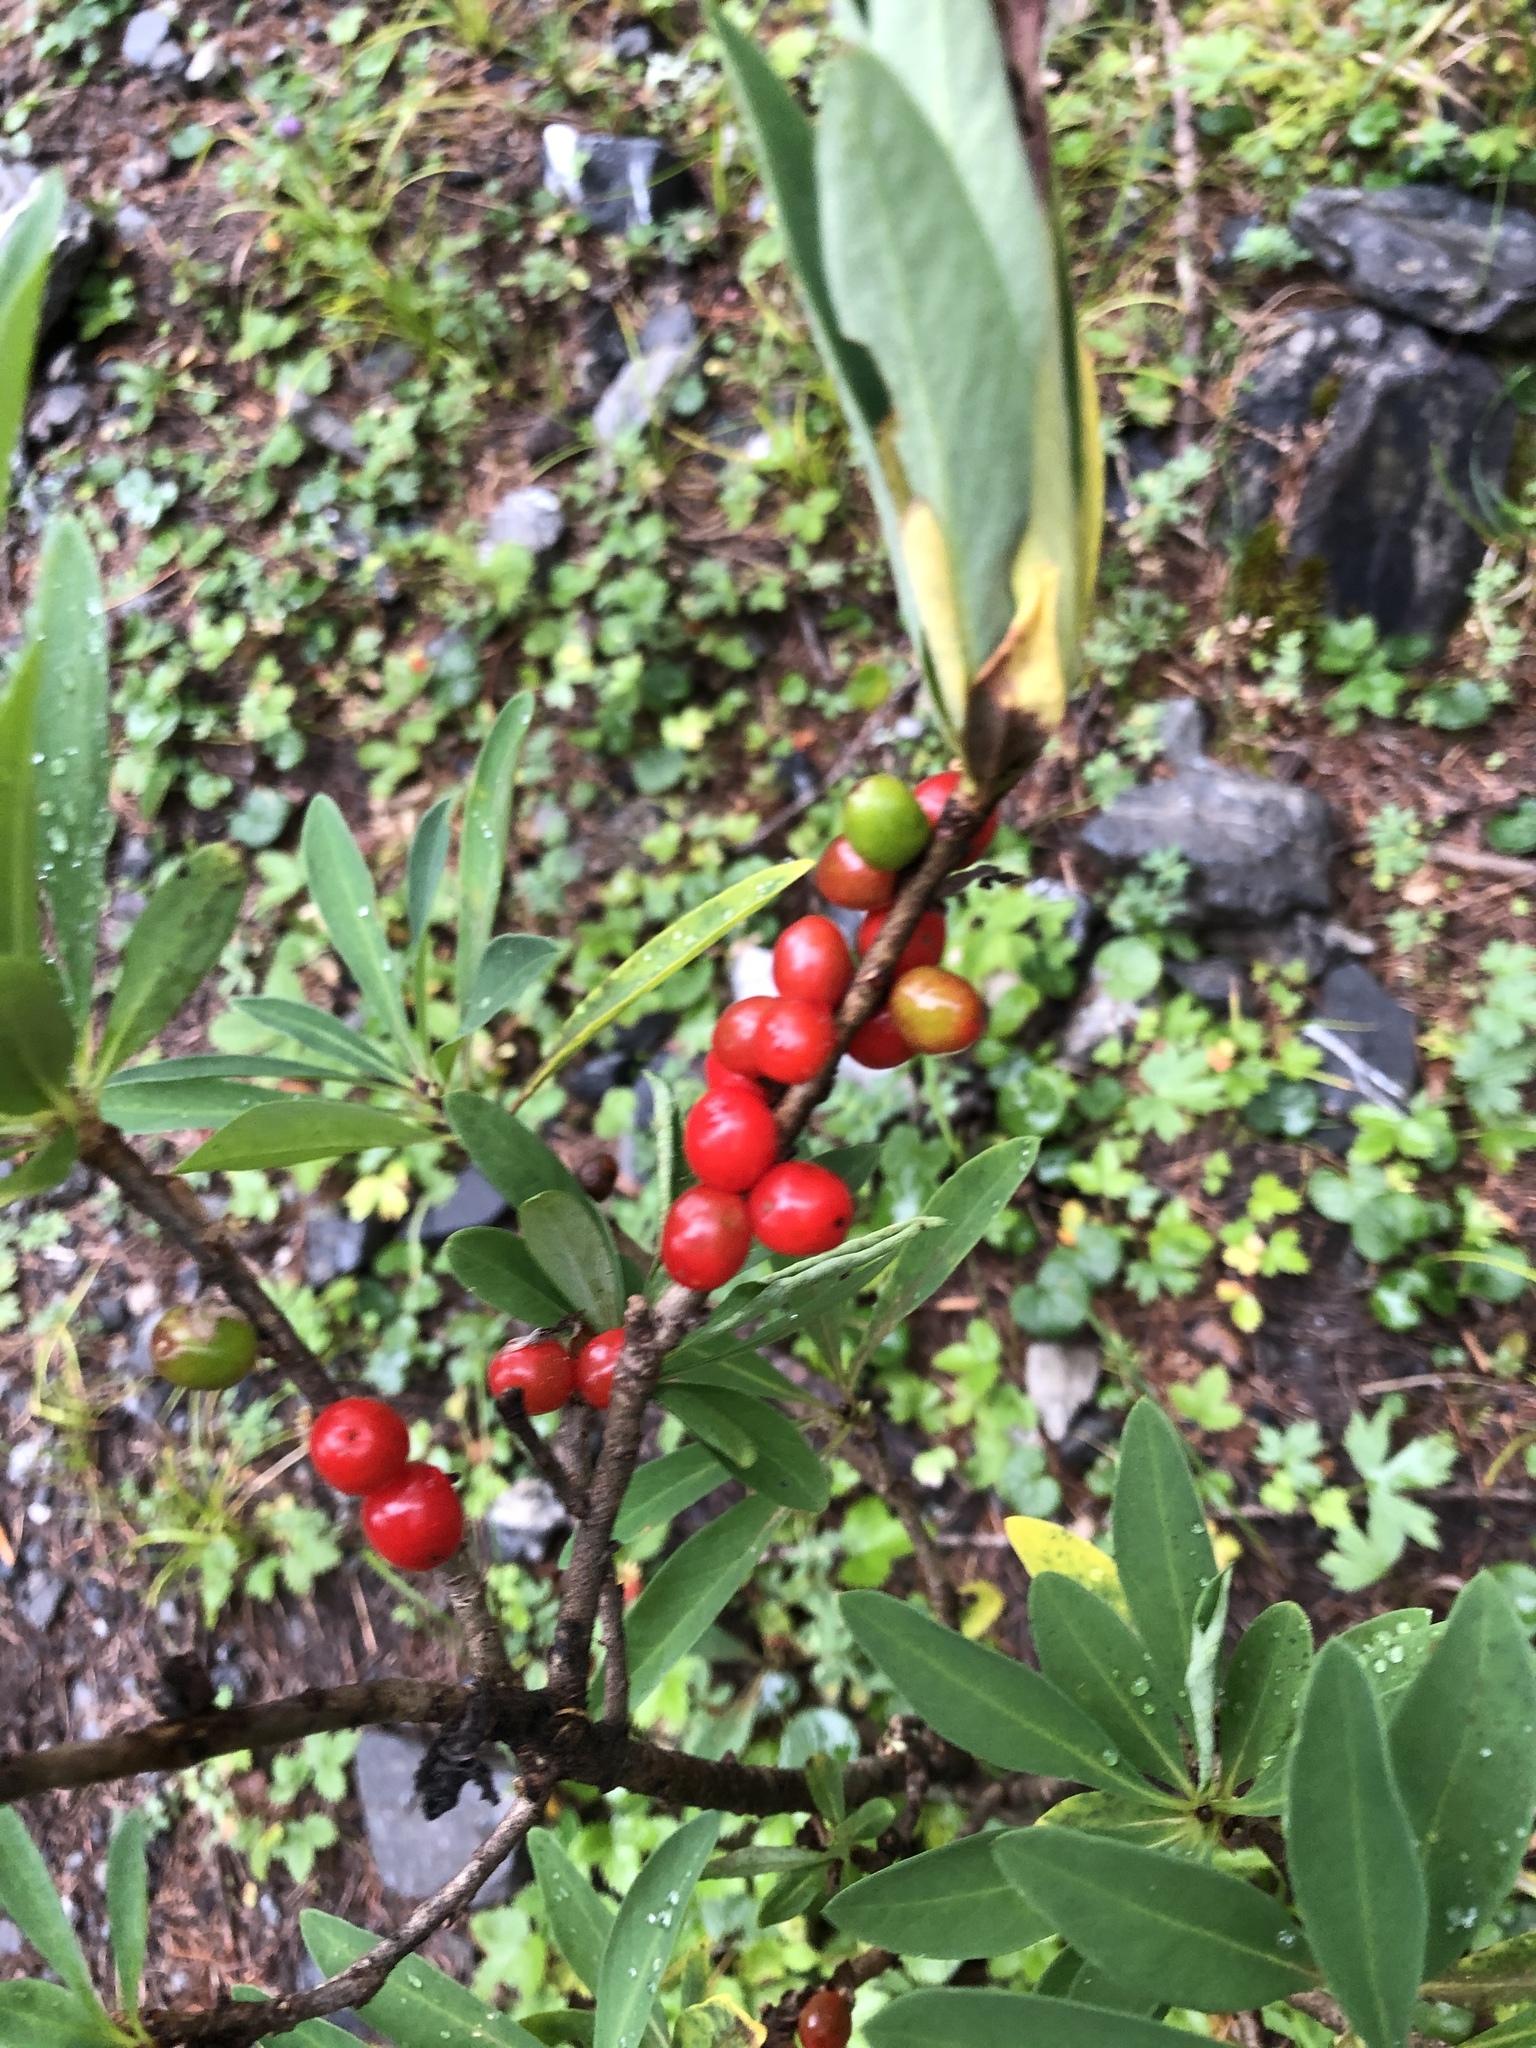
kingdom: Plantae
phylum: Tracheophyta
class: Magnoliopsida
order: Malvales
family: Thymelaeaceae
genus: Daphne
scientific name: Daphne mezereum
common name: Mezereon
